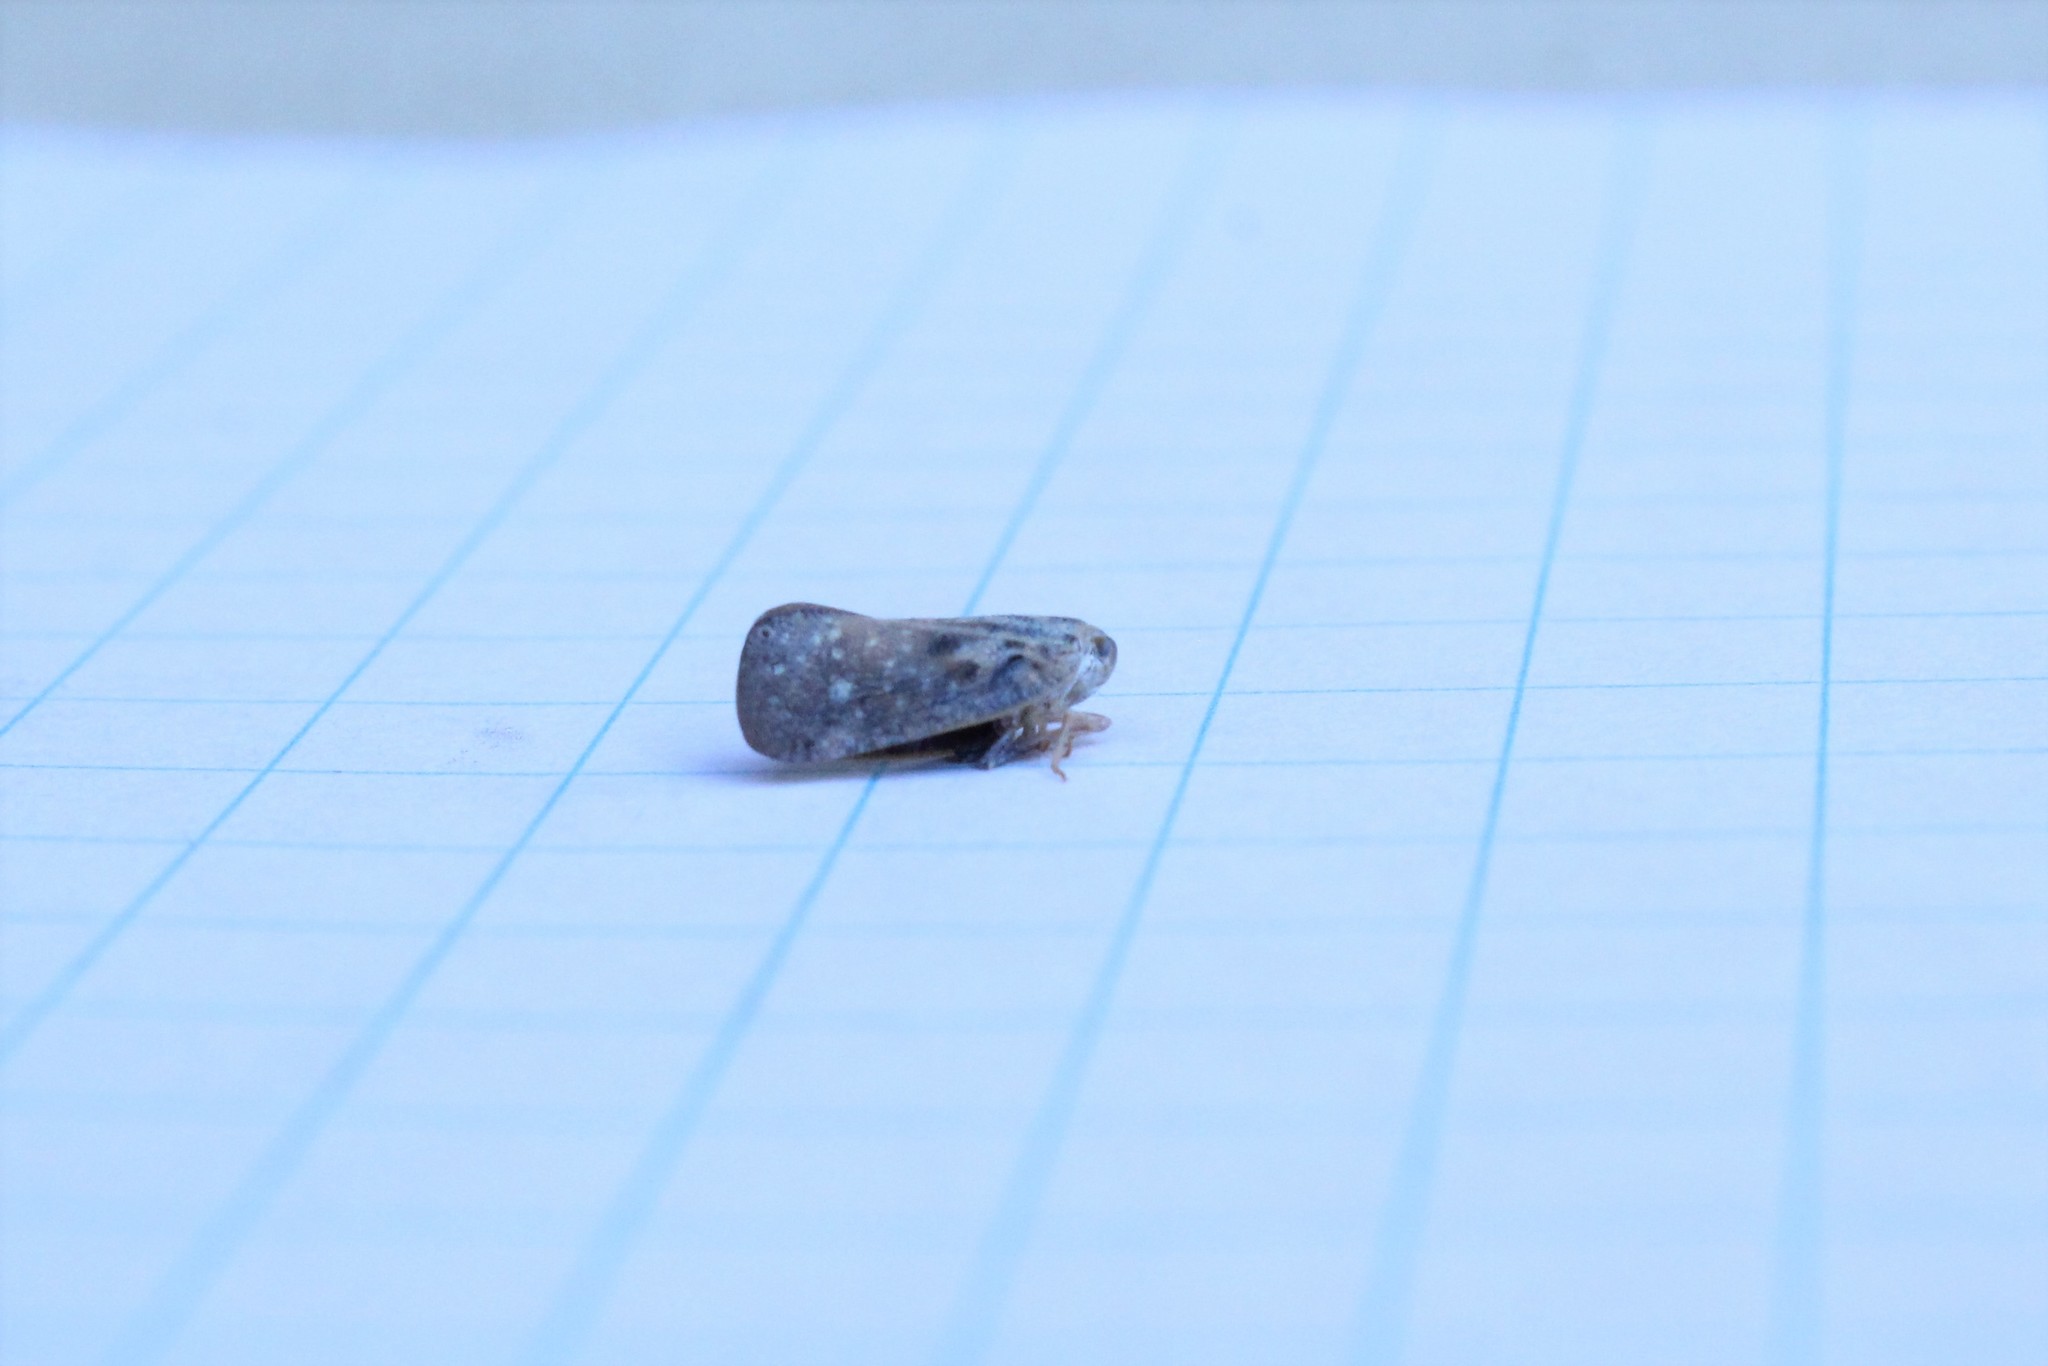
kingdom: Animalia
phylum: Arthropoda
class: Insecta
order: Hemiptera
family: Flatidae
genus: Metcalfa
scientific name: Metcalfa pruinosa
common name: Citrus flatid planthopper
